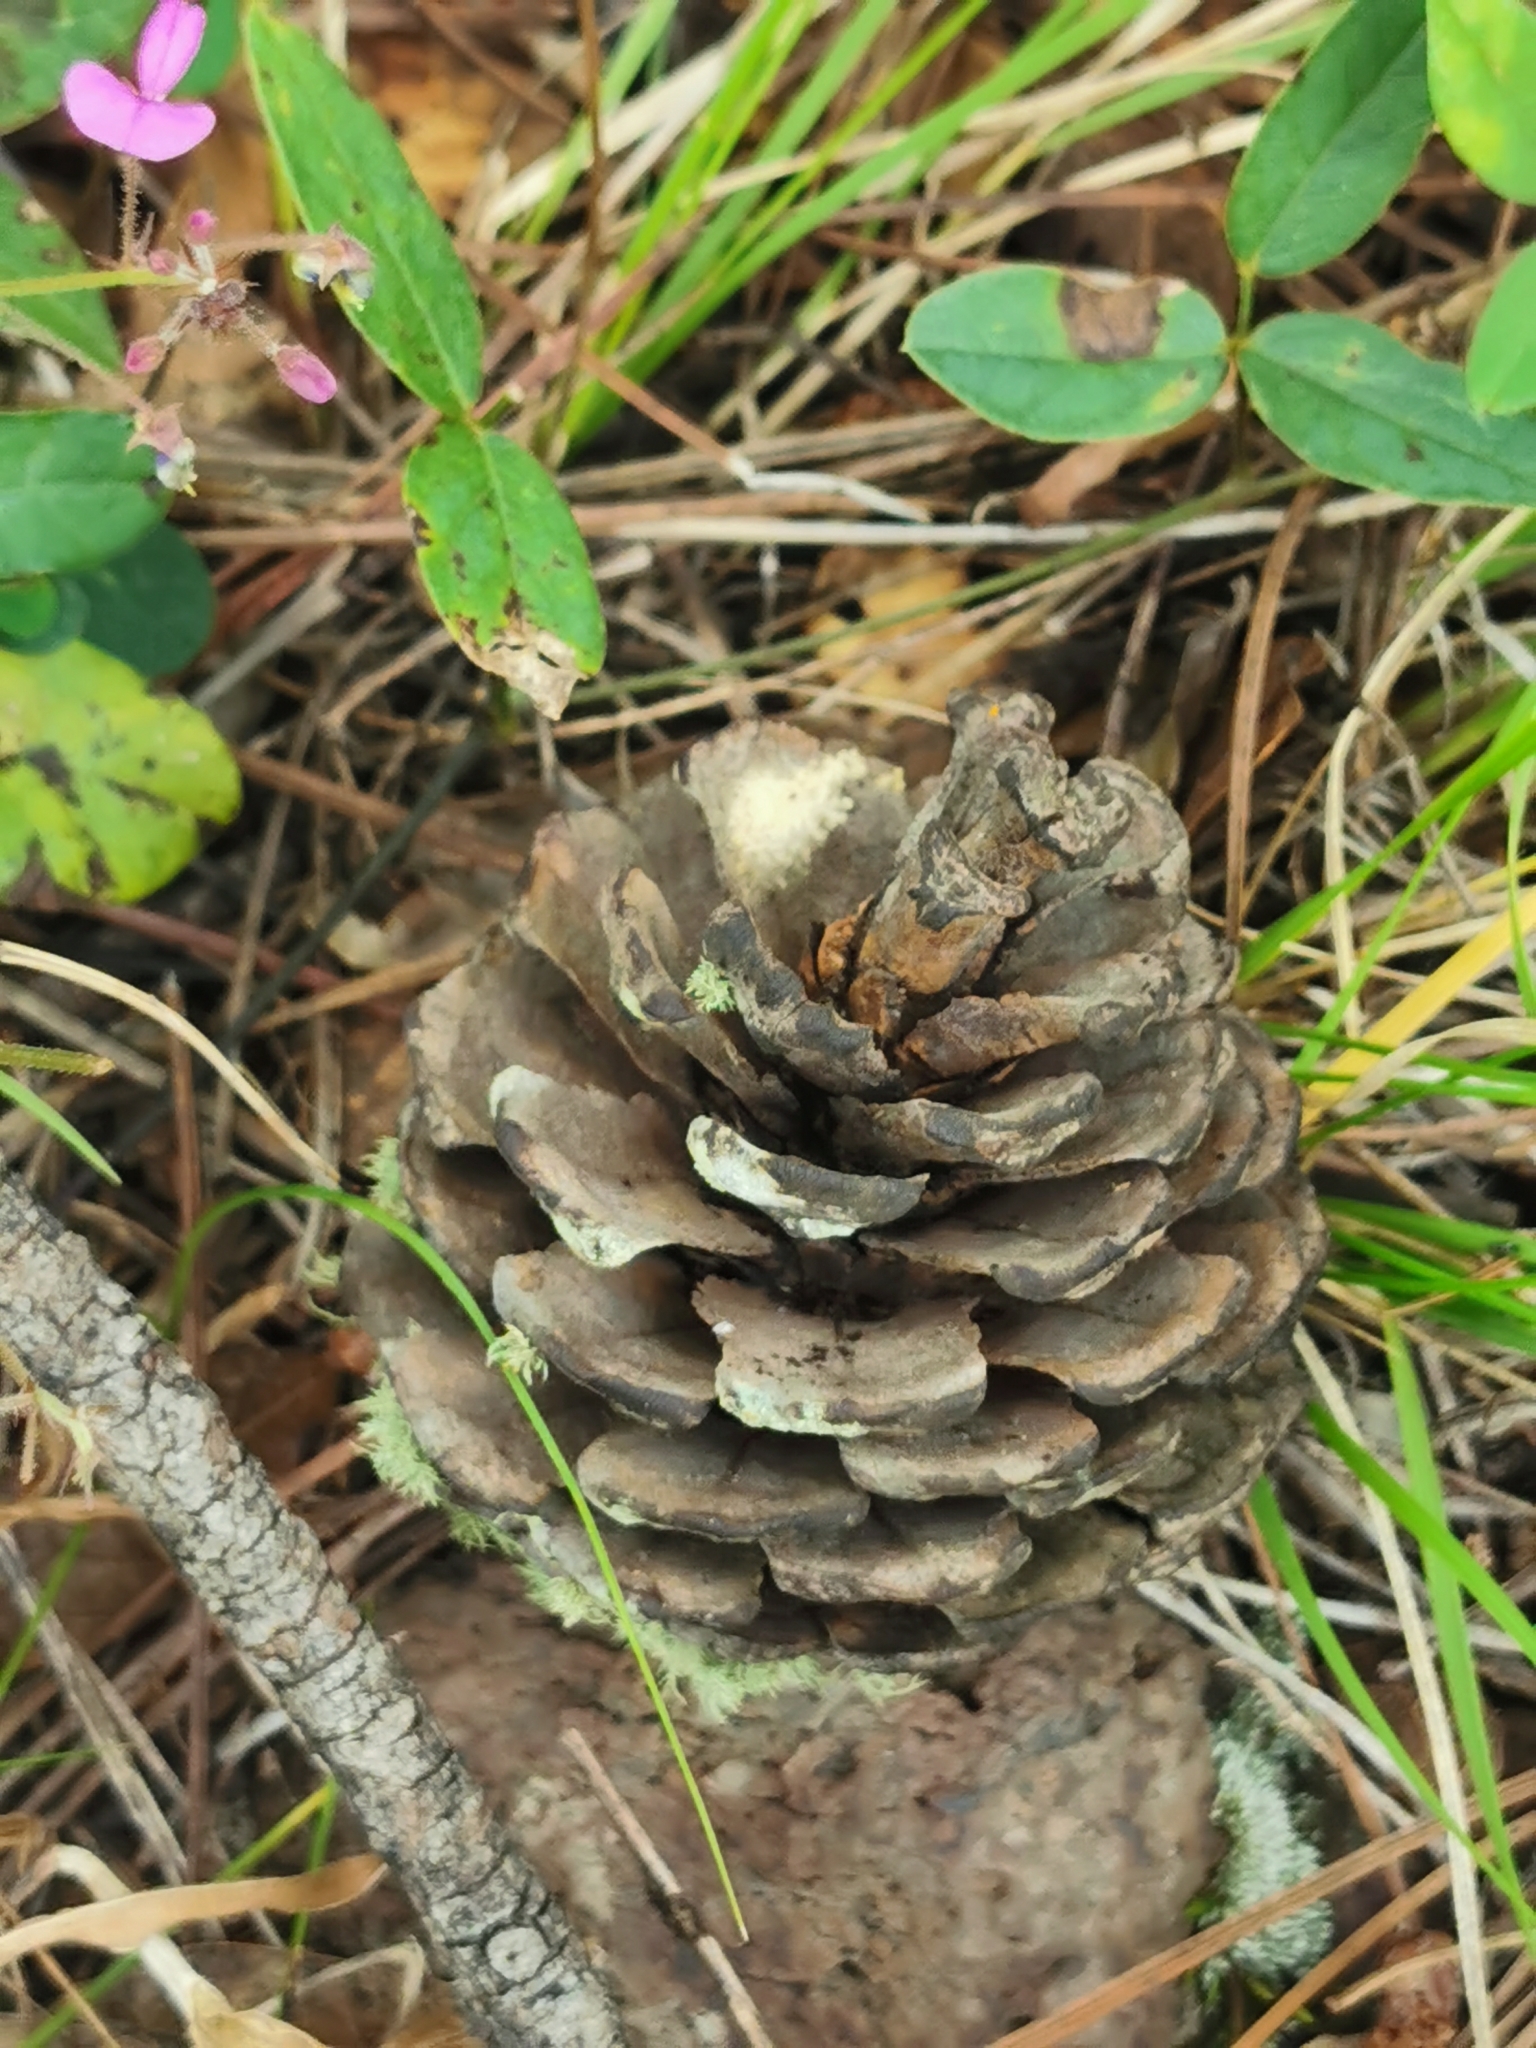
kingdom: Plantae
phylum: Tracheophyta
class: Pinopsida
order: Pinales
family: Pinaceae
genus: Pinus
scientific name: Pinus leiophylla
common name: Chihuahua pine
